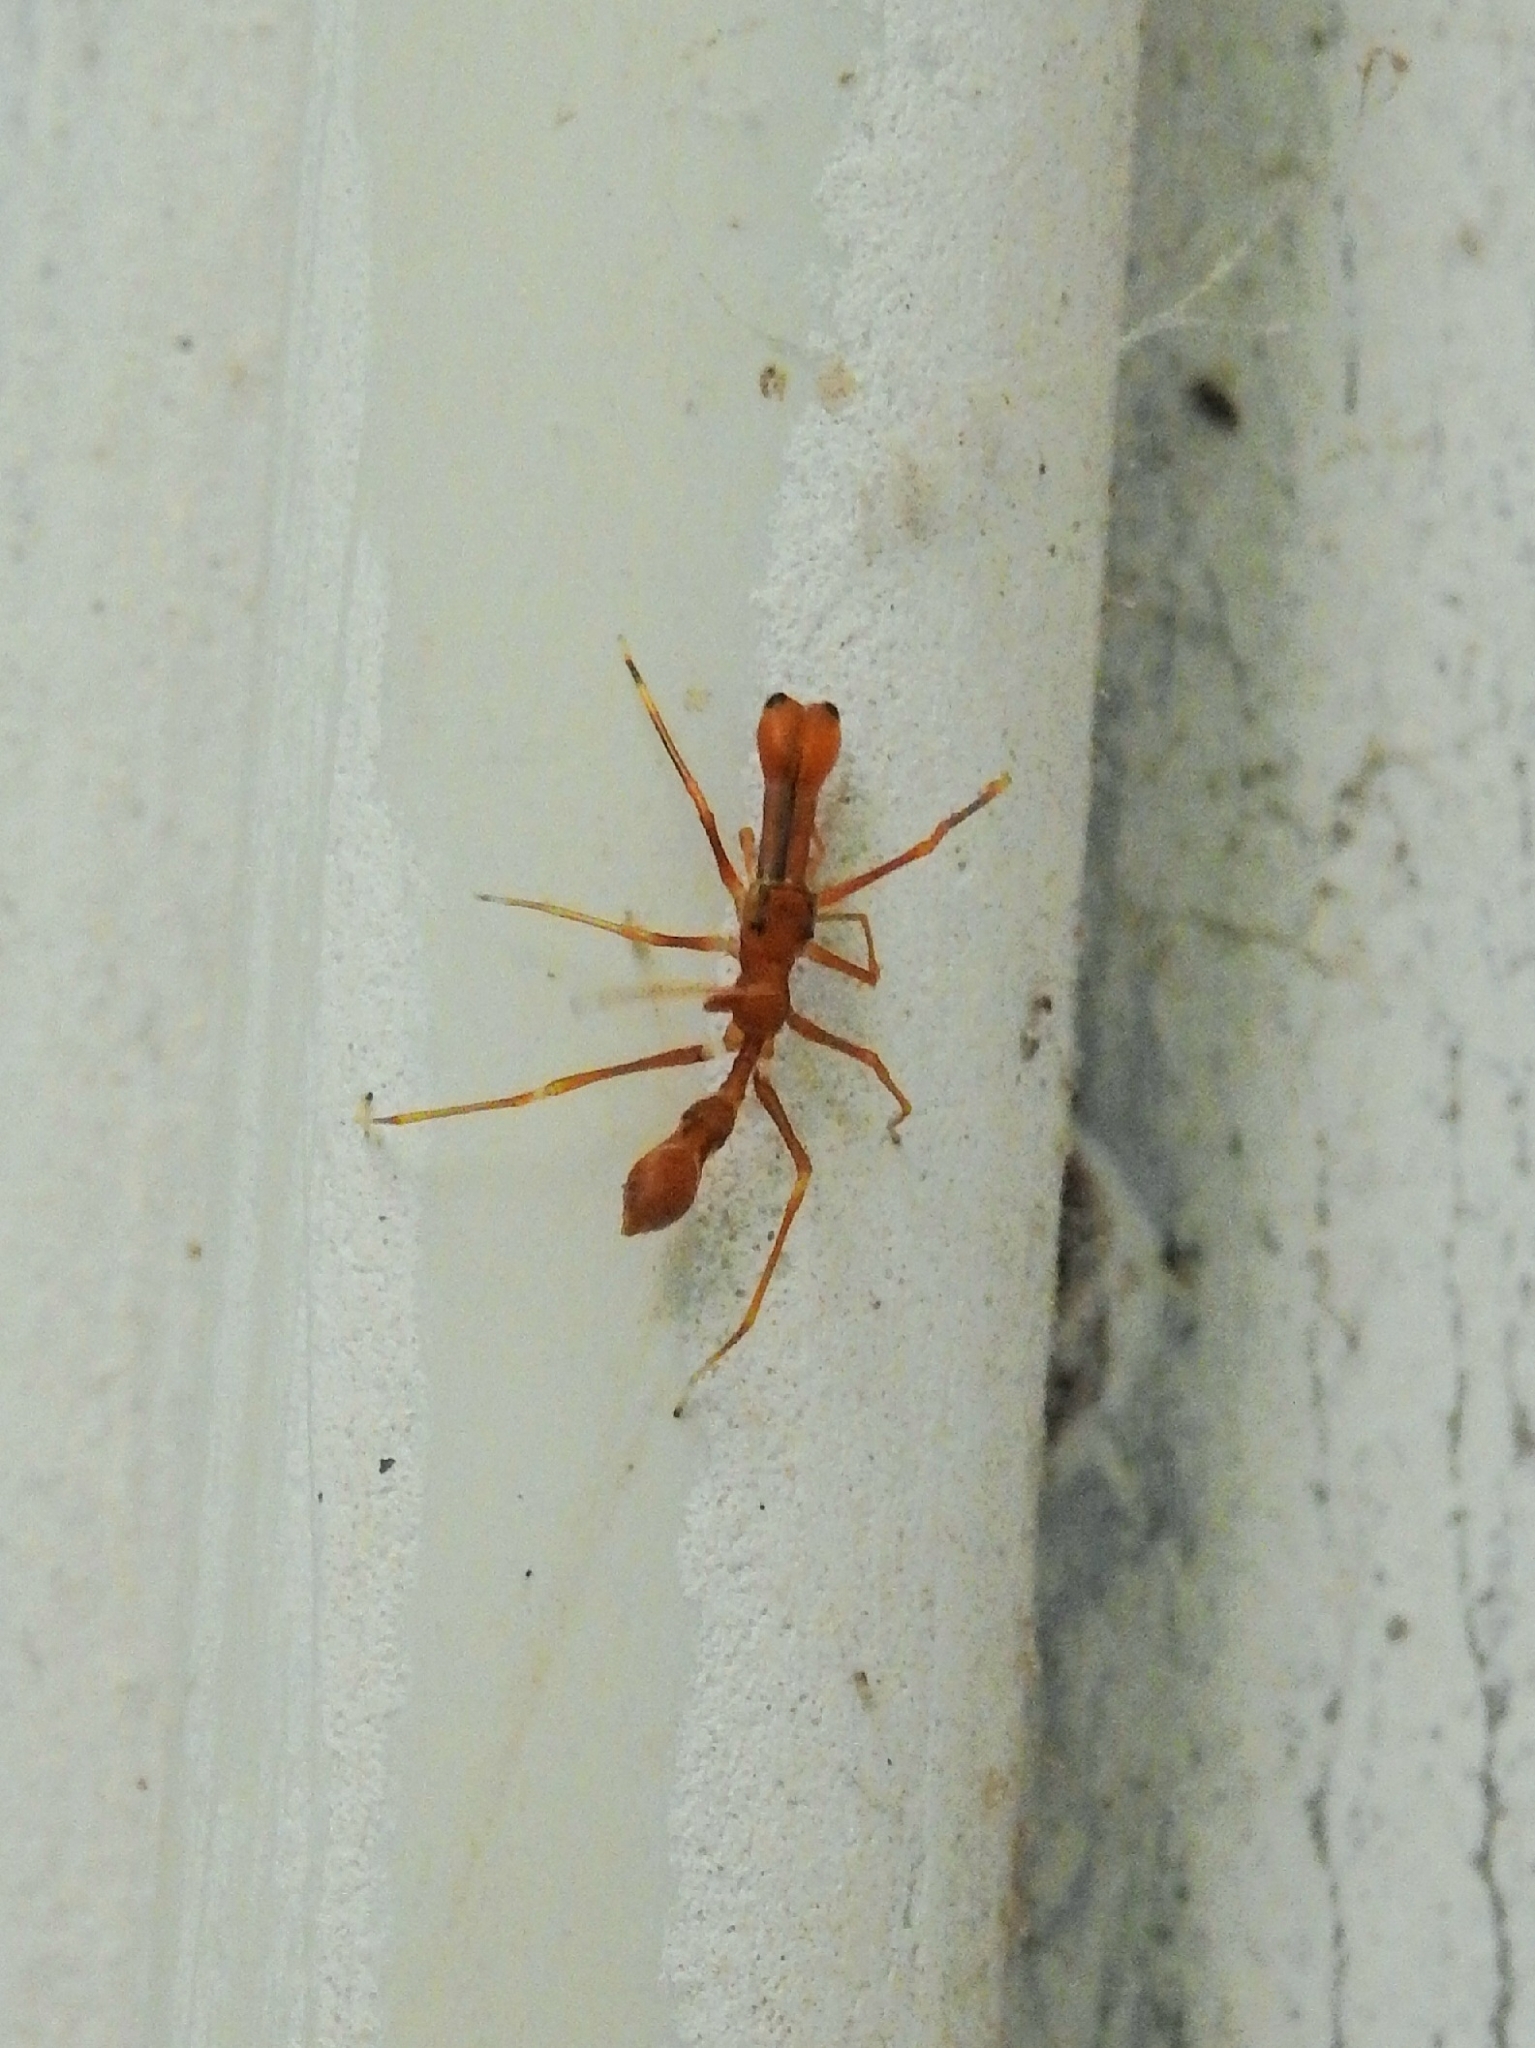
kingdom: Animalia
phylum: Arthropoda
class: Arachnida
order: Araneae
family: Salticidae
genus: Myrmaplata
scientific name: Myrmaplata plataleoides
